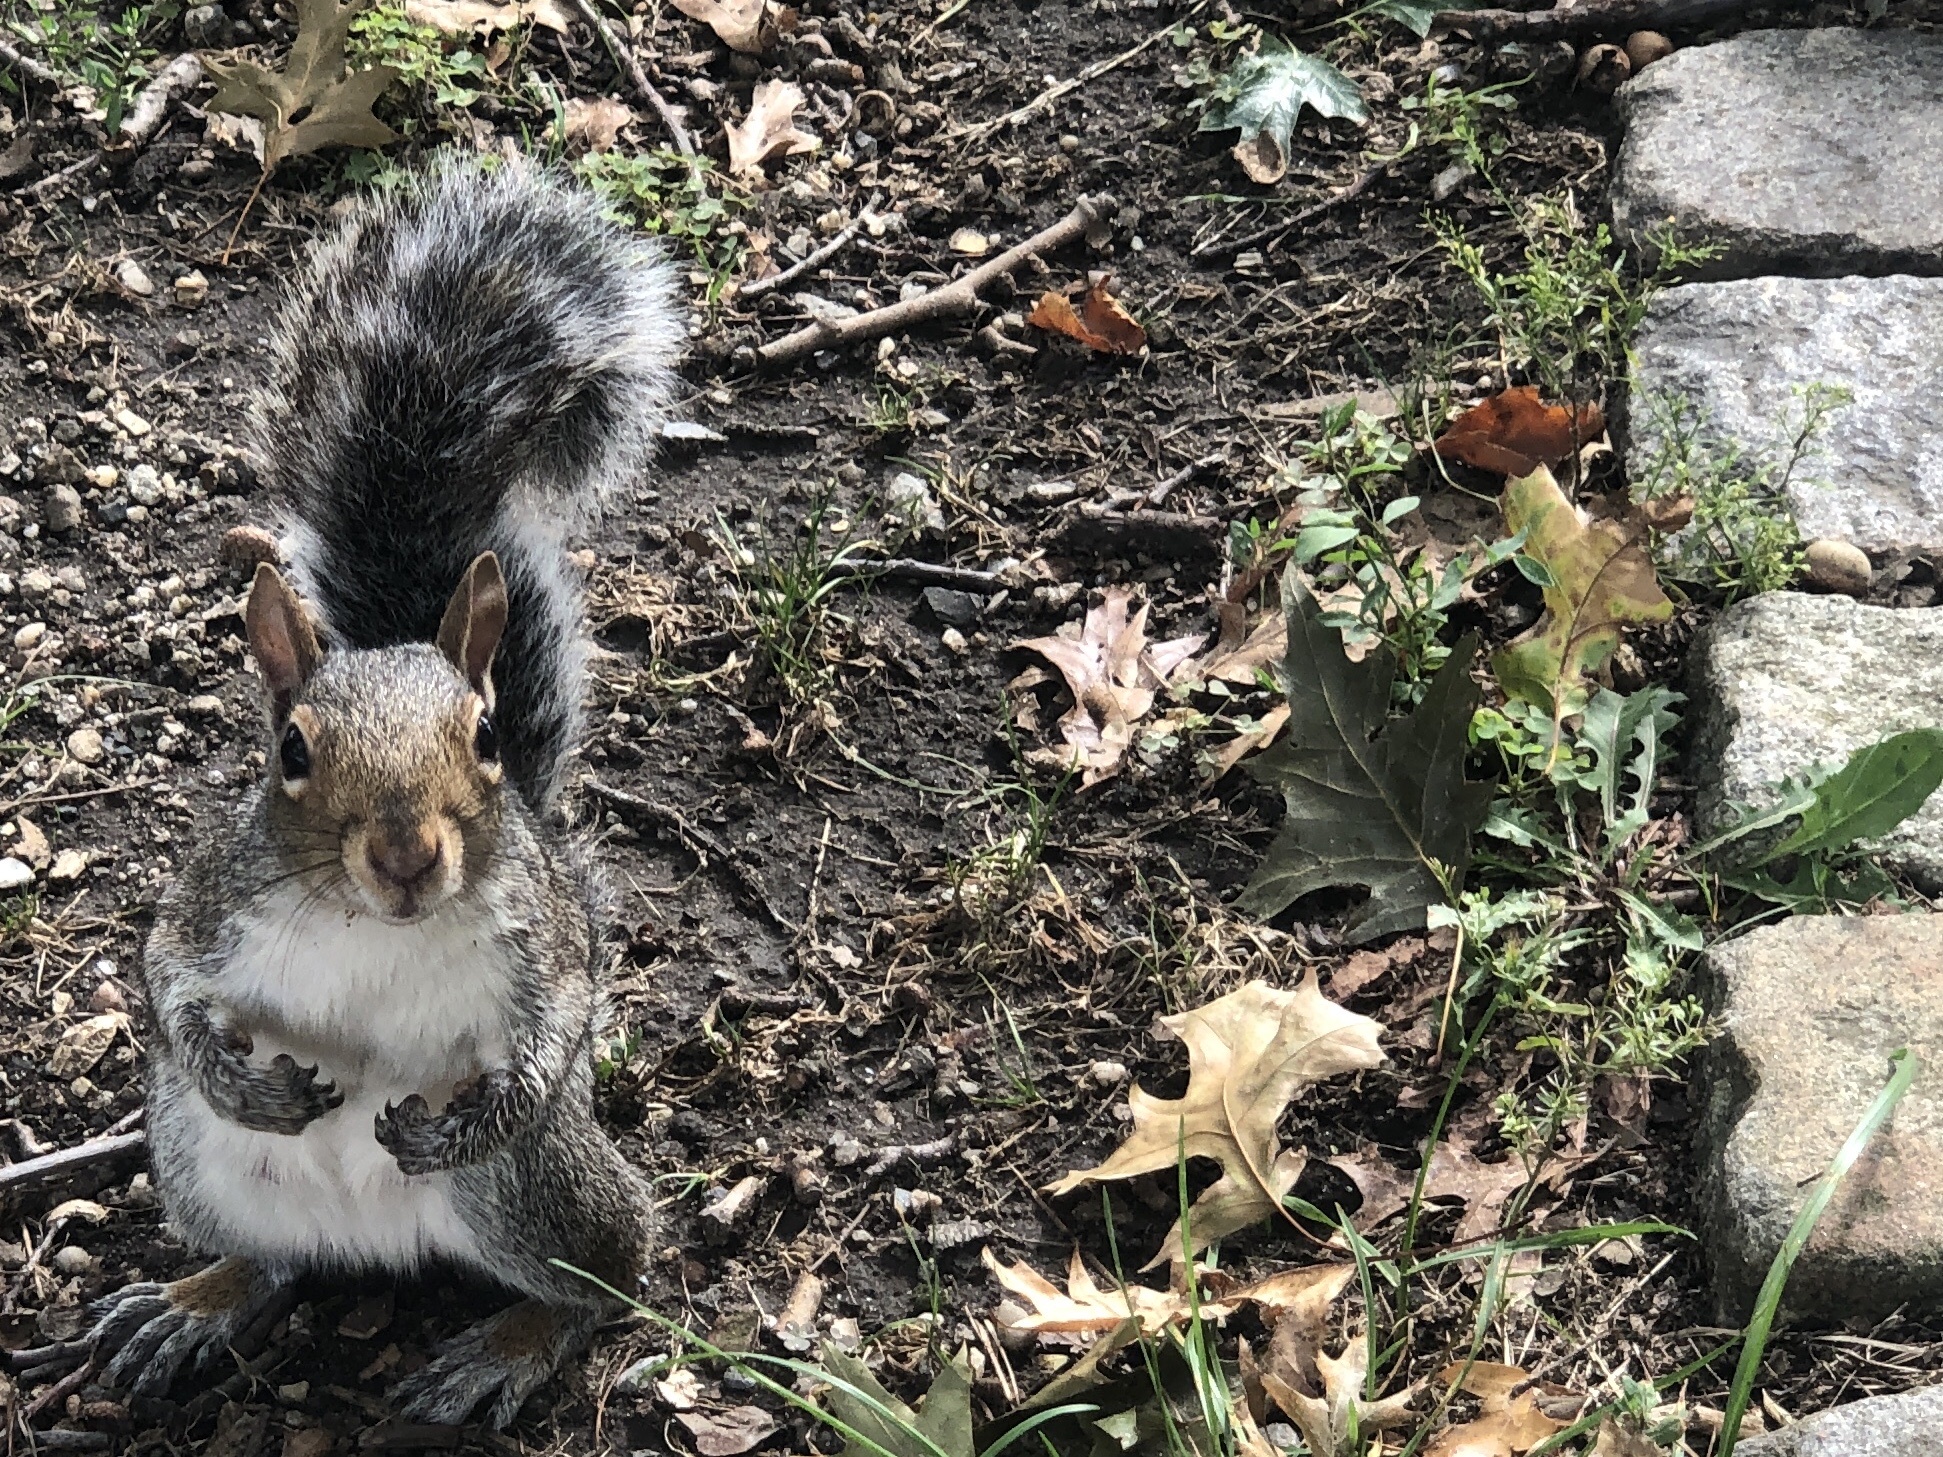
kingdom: Animalia
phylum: Chordata
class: Mammalia
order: Rodentia
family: Sciuridae
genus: Sciurus
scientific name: Sciurus carolinensis
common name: Eastern gray squirrel
